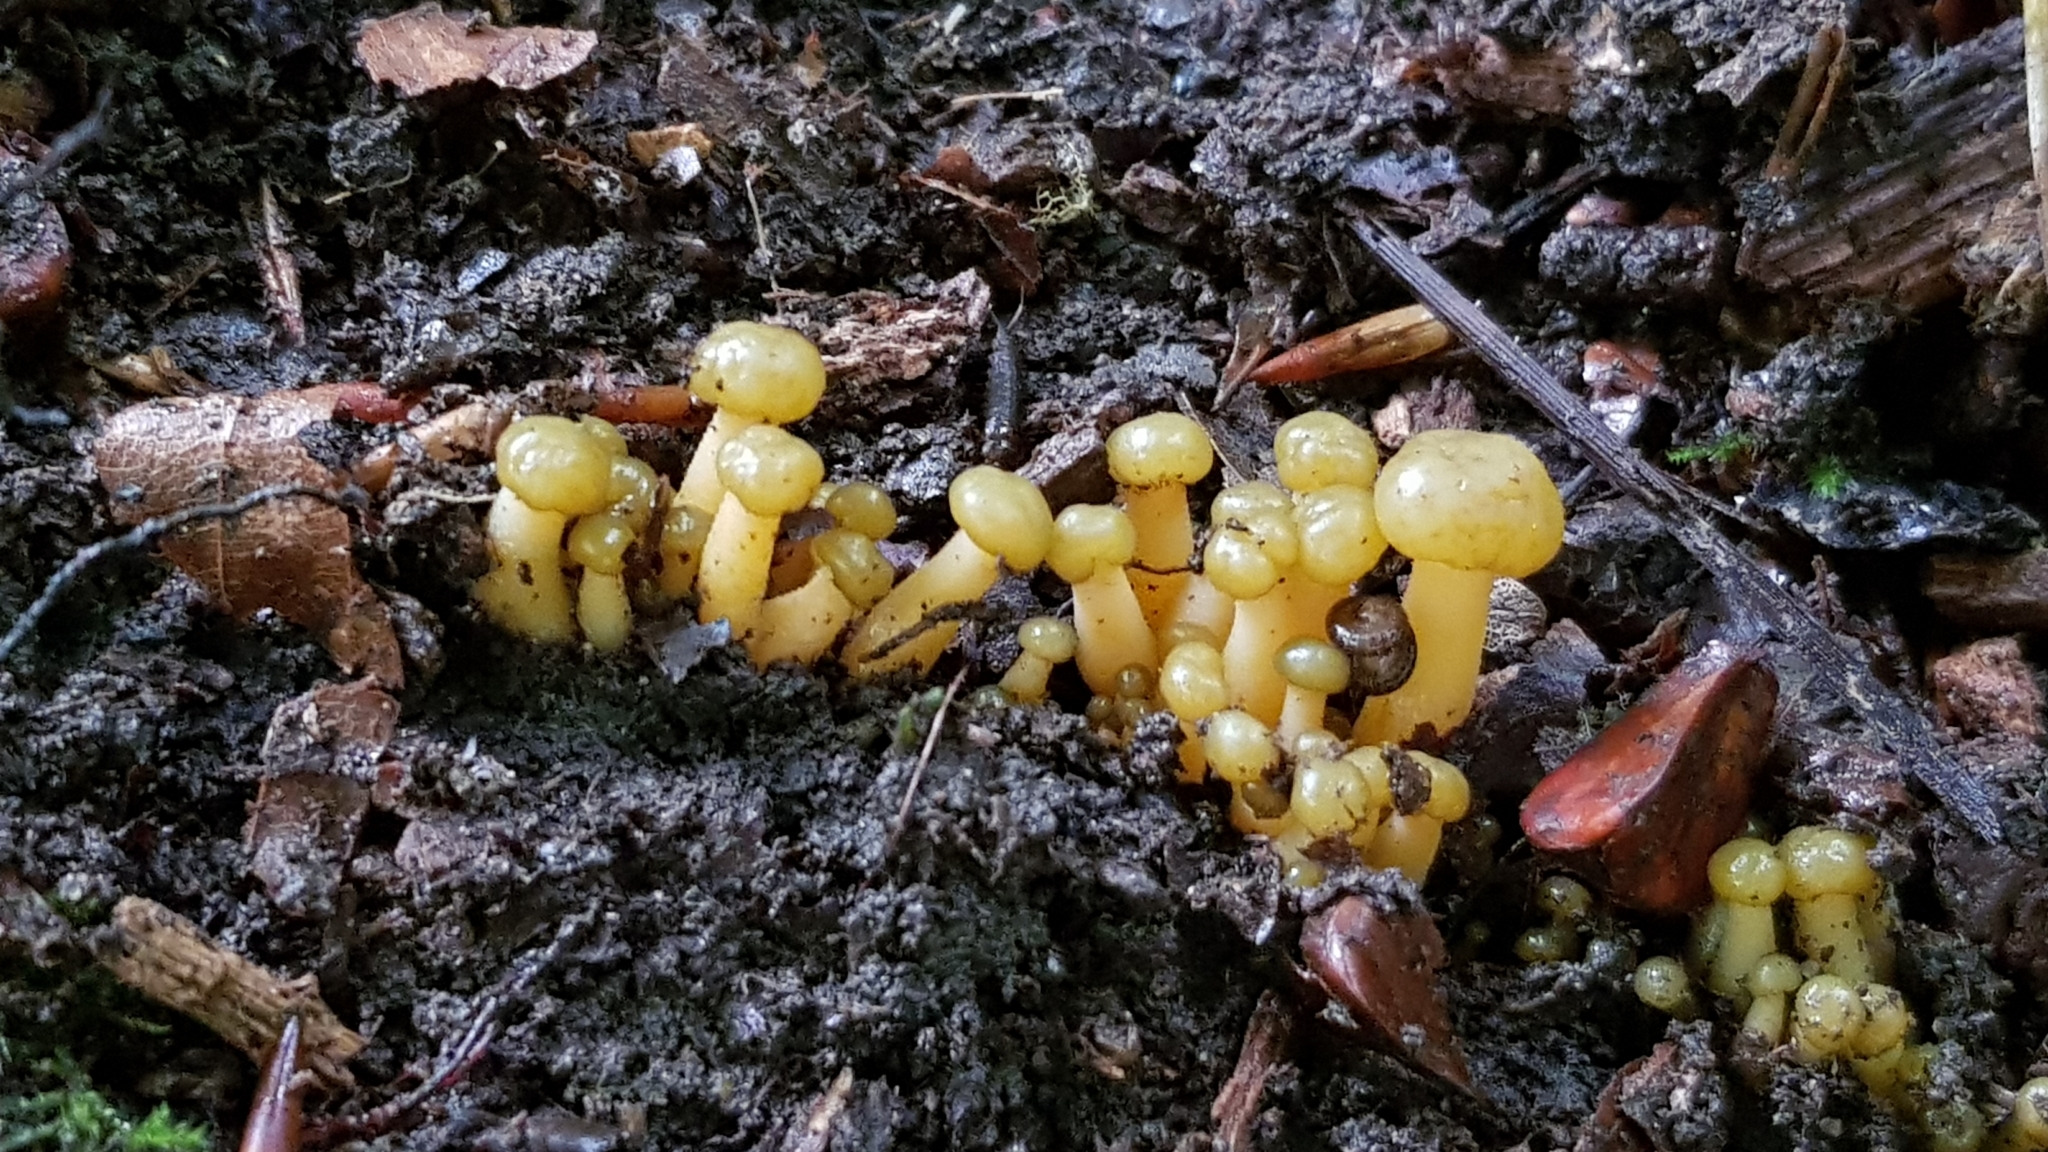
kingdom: Fungi
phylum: Ascomycota
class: Leotiomycetes
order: Leotiales
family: Leotiaceae
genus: Leotia
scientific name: Leotia lubrica
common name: Jellybaby
